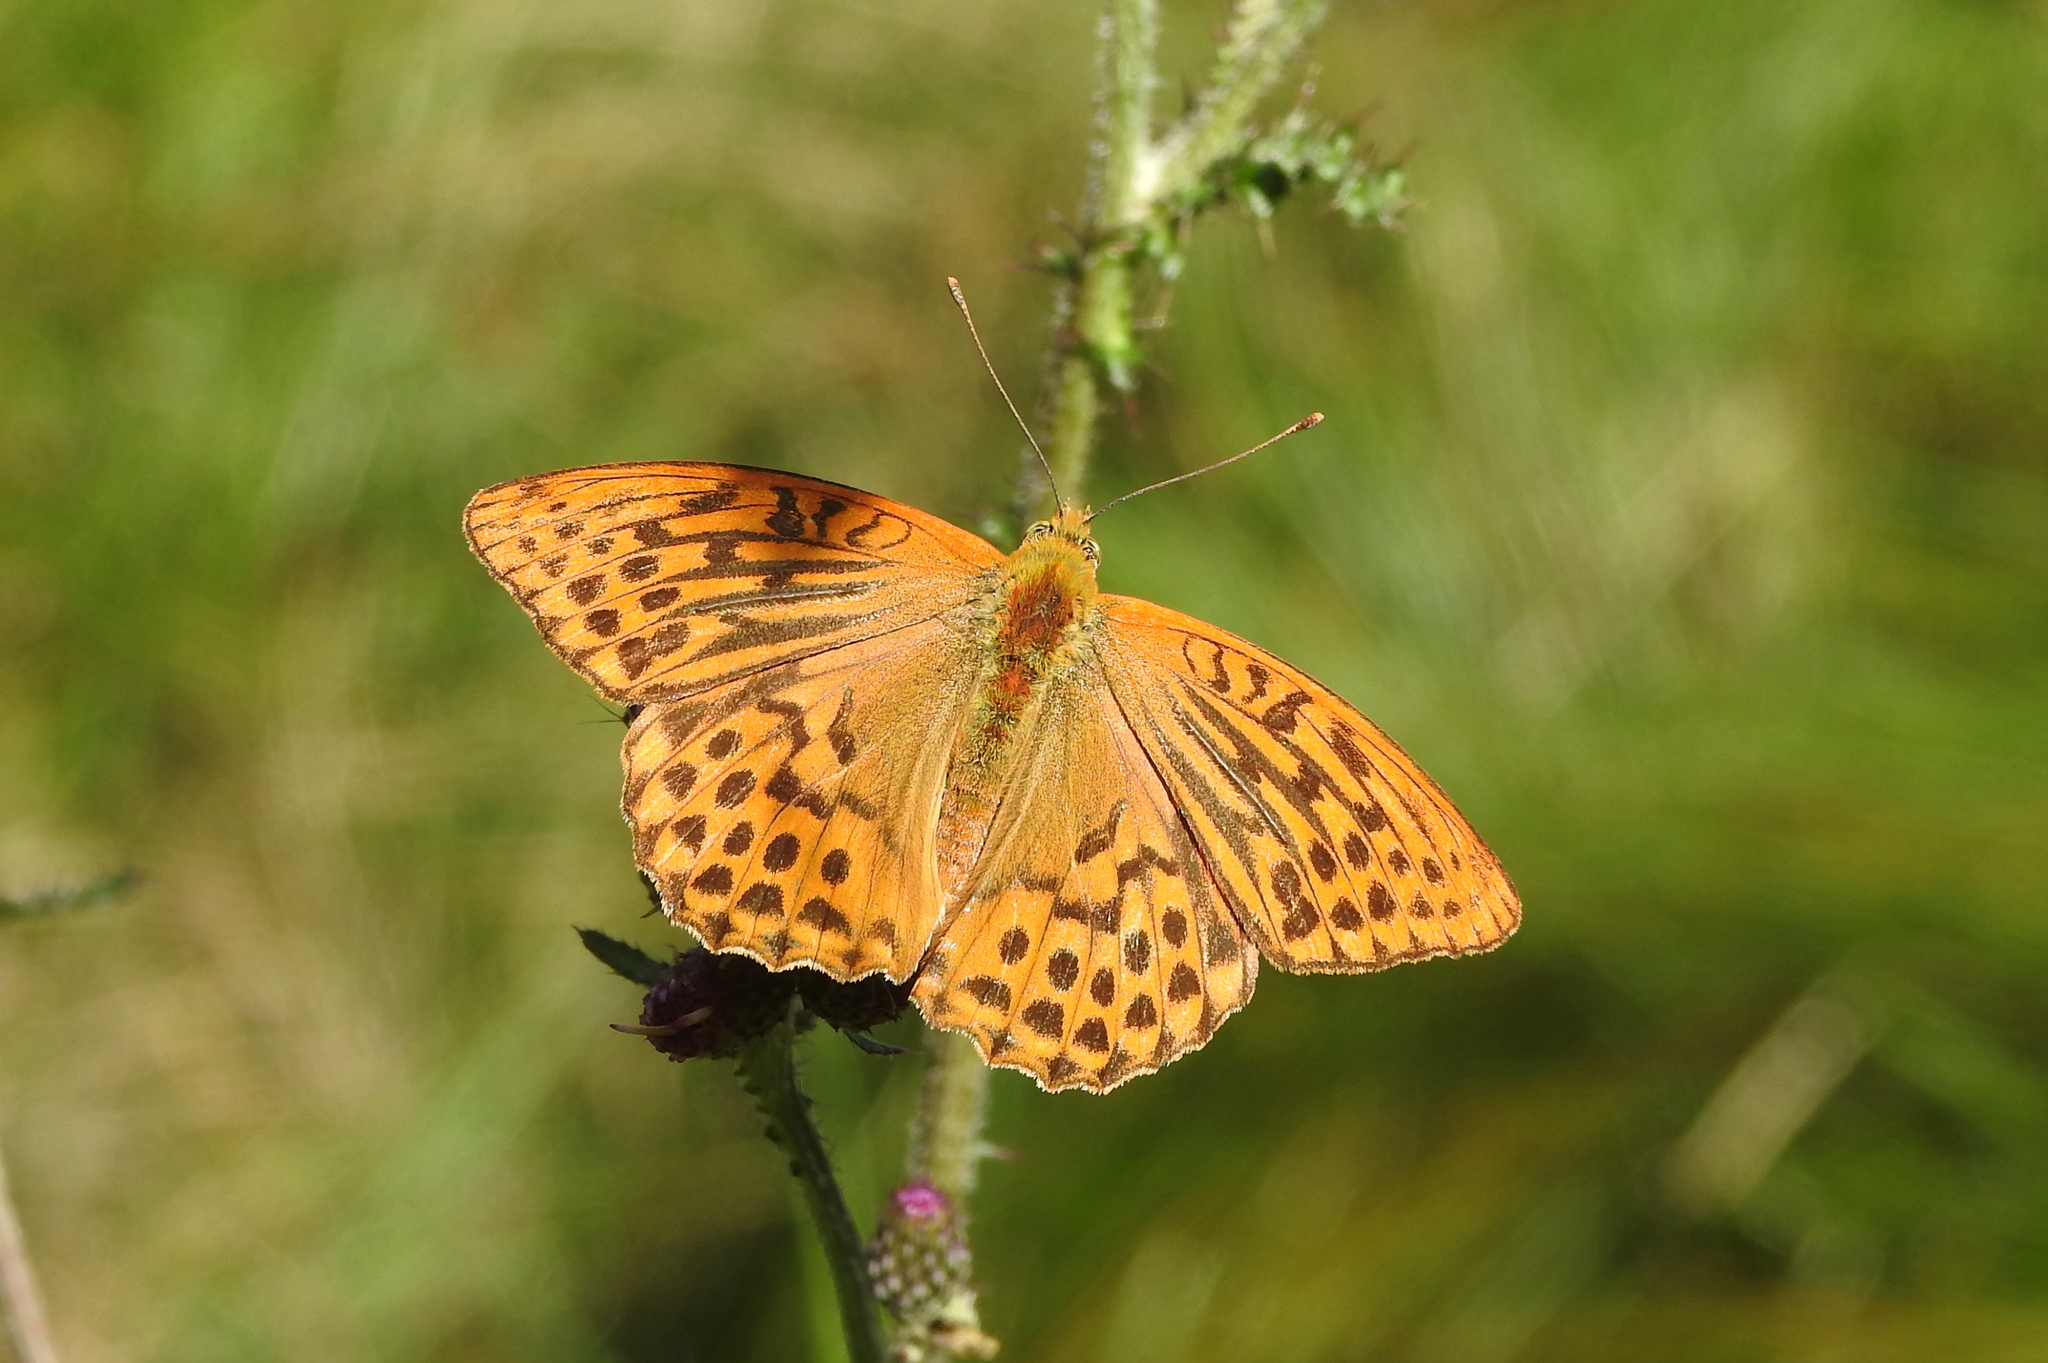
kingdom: Animalia
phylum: Arthropoda
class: Insecta
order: Lepidoptera
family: Nymphalidae
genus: Argynnis
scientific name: Argynnis paphia
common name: Silver-washed fritillary
